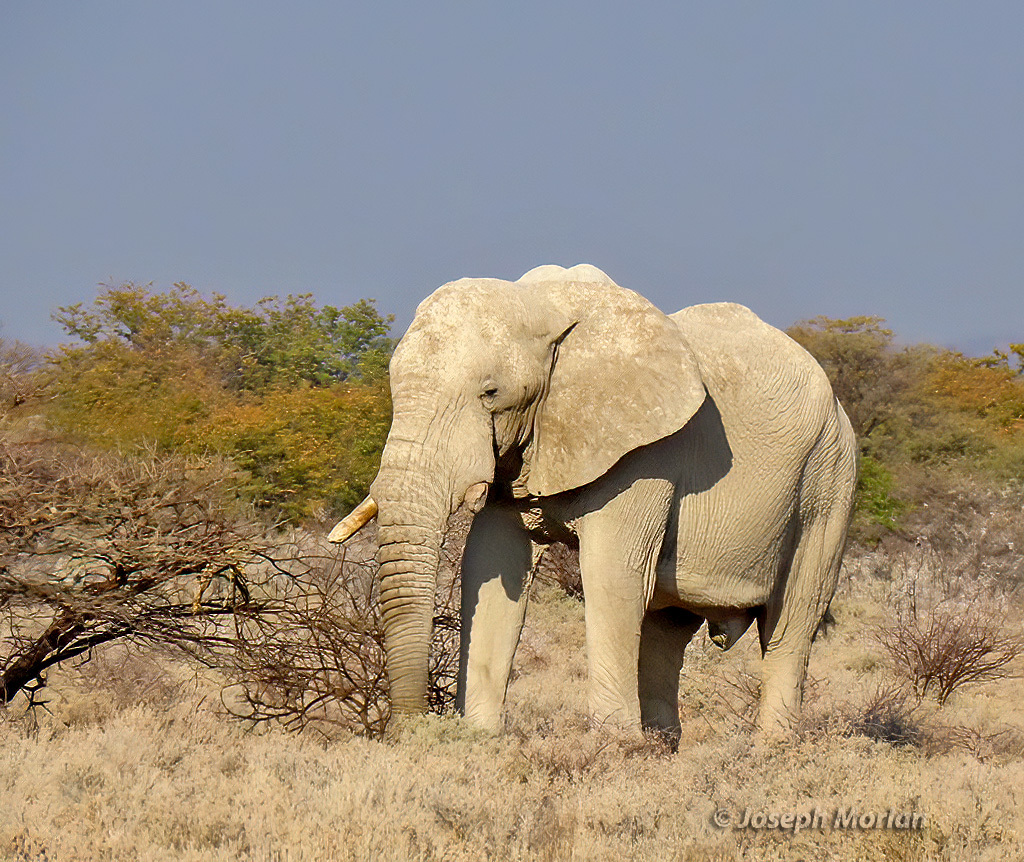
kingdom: Animalia
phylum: Chordata
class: Mammalia
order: Proboscidea
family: Elephantidae
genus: Loxodonta
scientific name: Loxodonta africana
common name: African elephant
